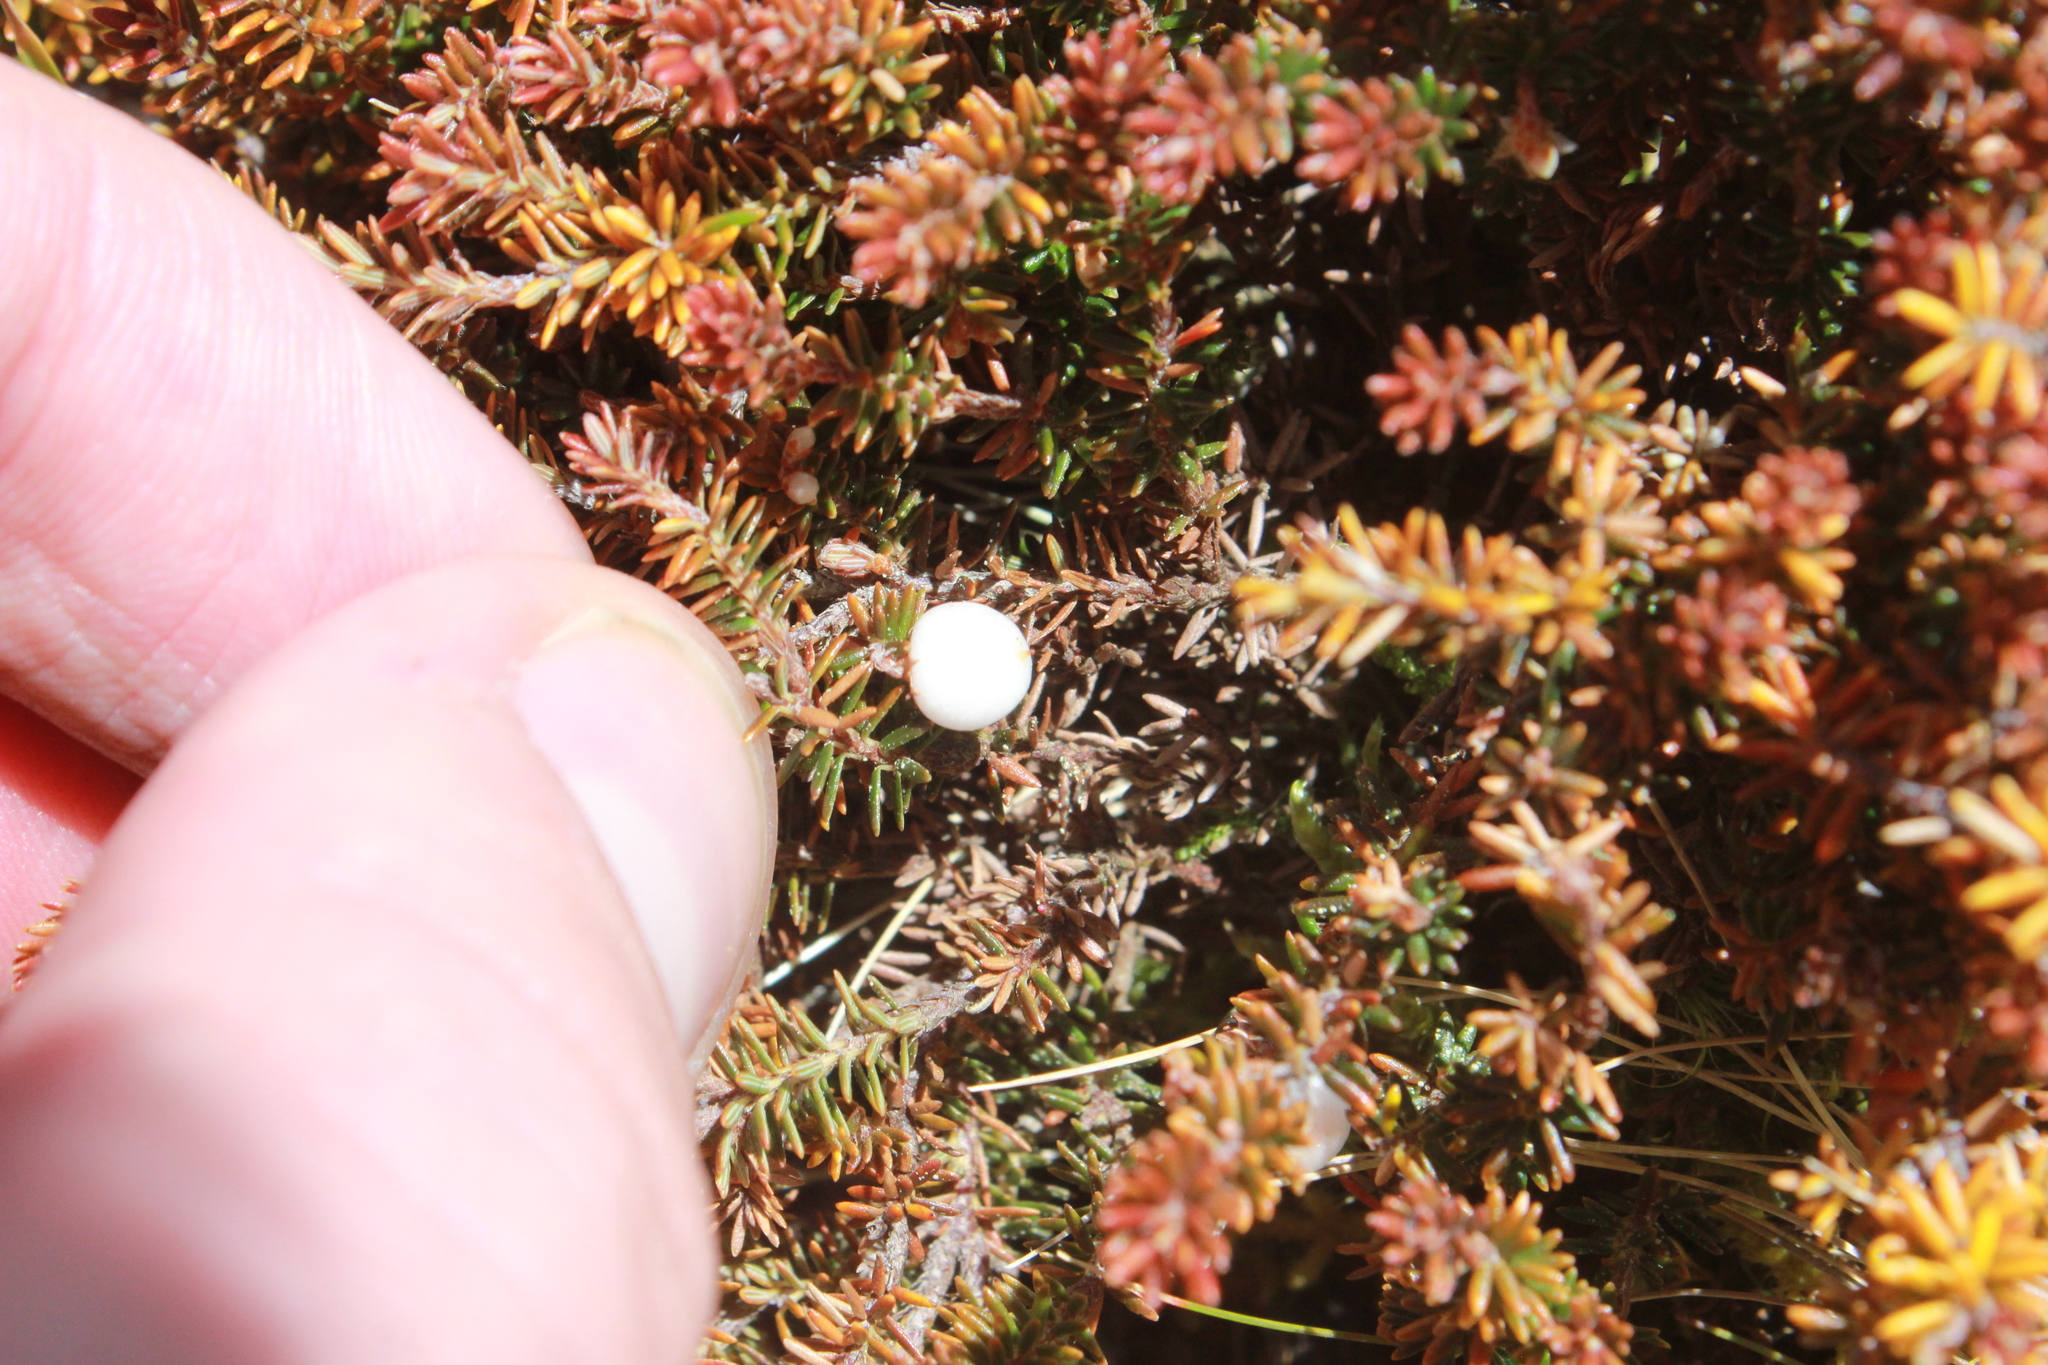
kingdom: Plantae
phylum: Tracheophyta
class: Magnoliopsida
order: Ericales
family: Ericaceae
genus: Androstoma
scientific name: Androstoma empetrifolia
